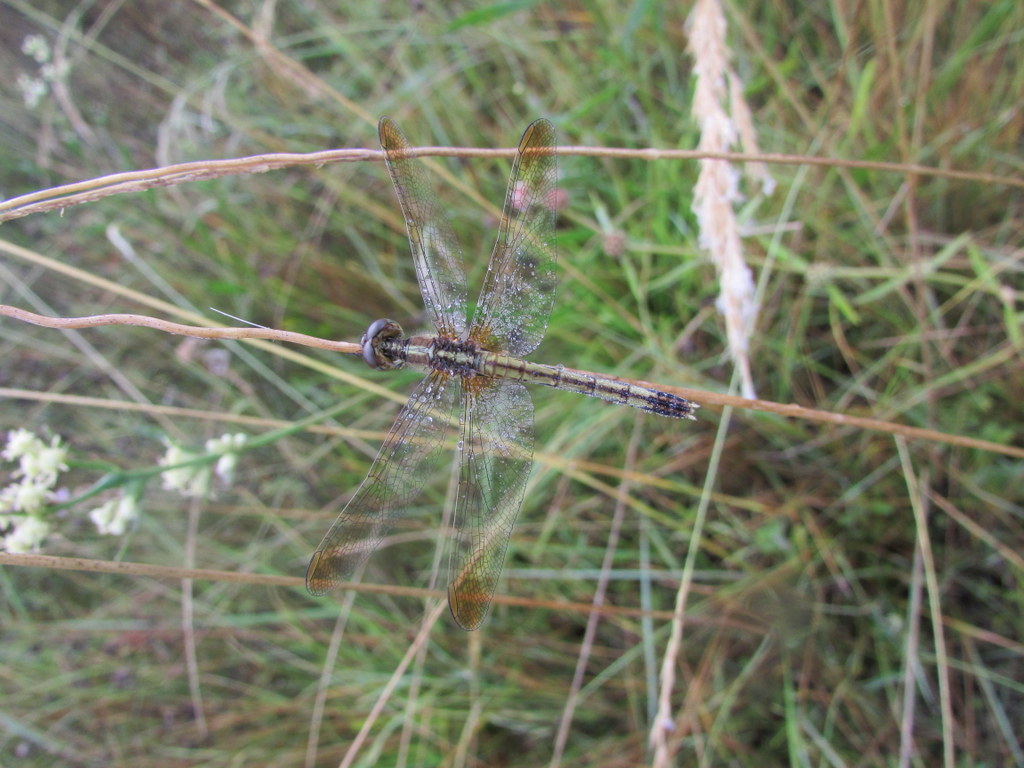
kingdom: Animalia
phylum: Arthropoda
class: Insecta
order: Odonata
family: Libellulidae
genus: Erythrodiplax
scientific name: Erythrodiplax nigricans
